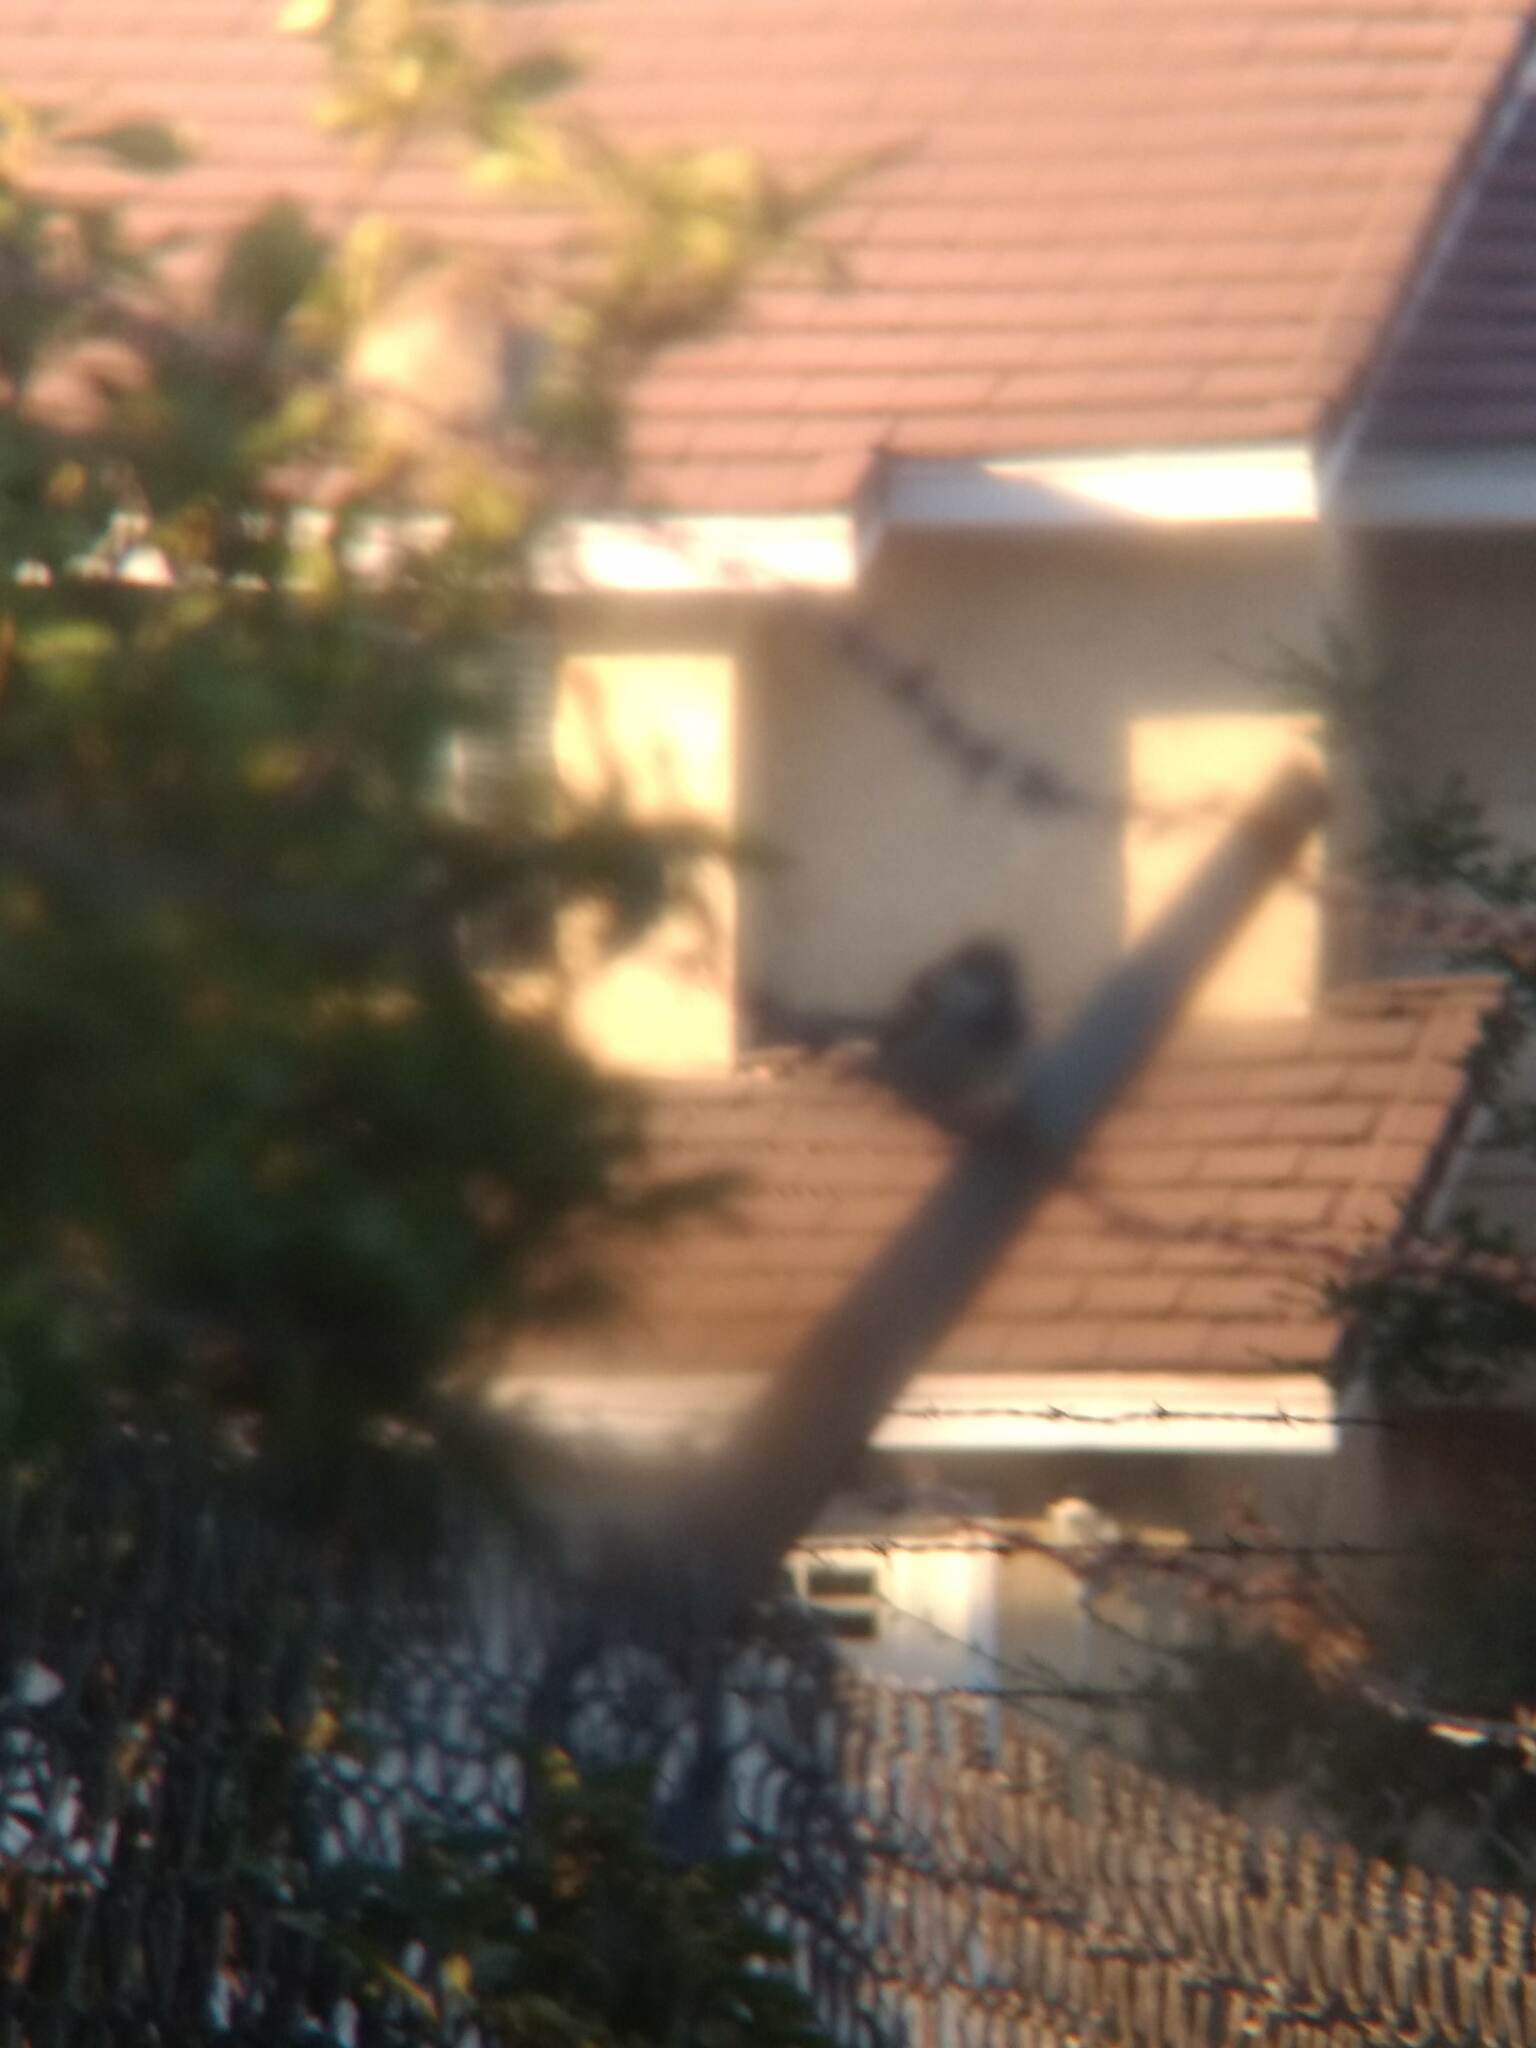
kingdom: Animalia
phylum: Chordata
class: Aves
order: Passeriformes
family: Passeridae
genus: Passer
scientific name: Passer domesticus
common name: House sparrow
